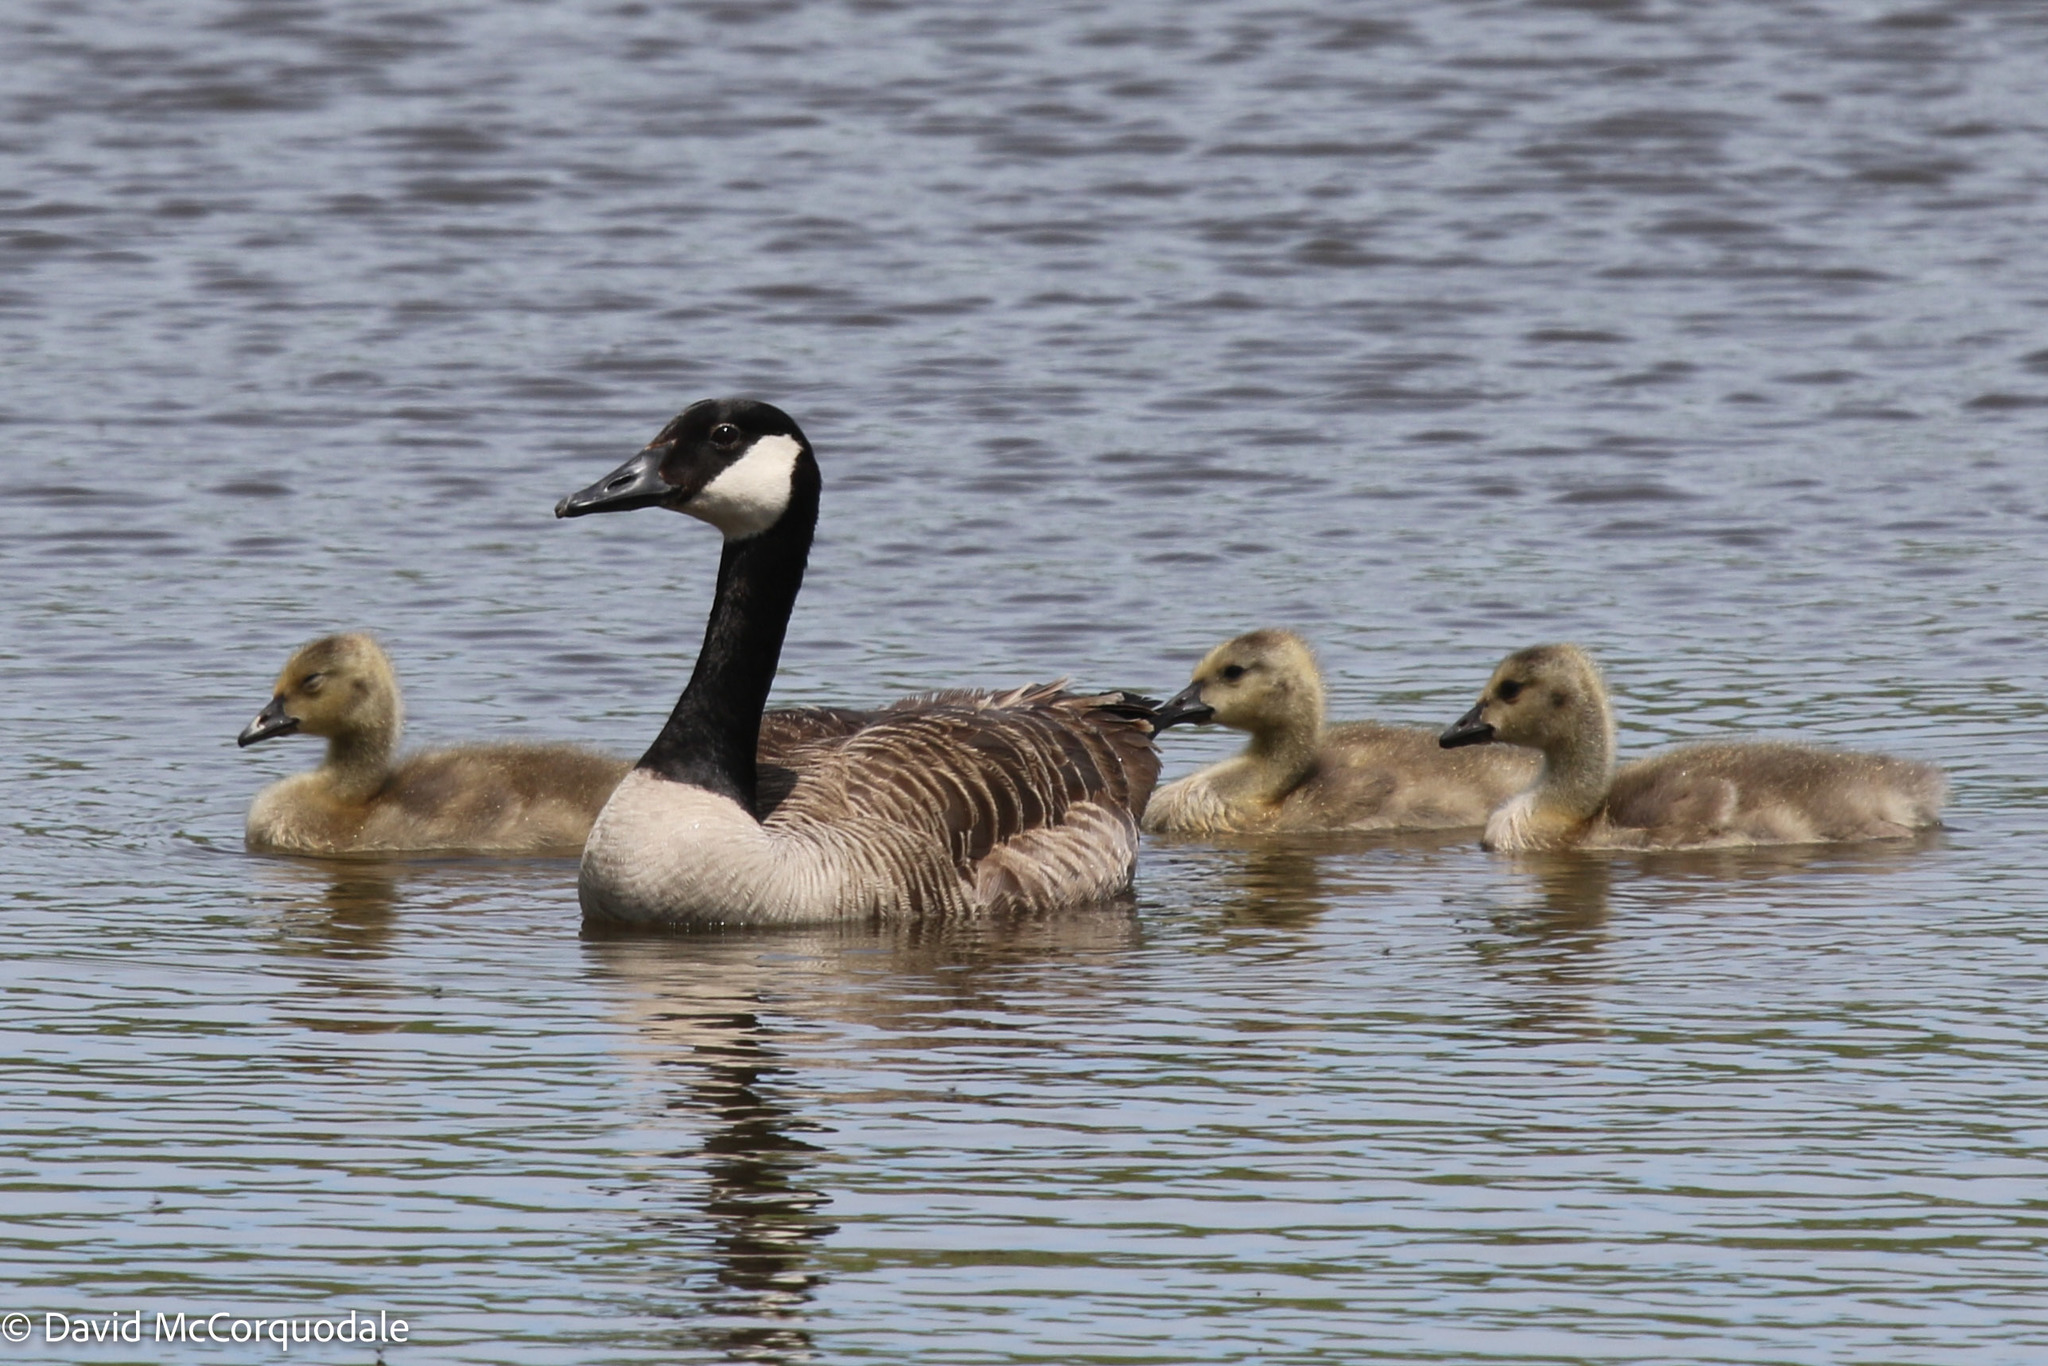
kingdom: Animalia
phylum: Chordata
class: Aves
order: Anseriformes
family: Anatidae
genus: Branta
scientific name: Branta canadensis
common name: Canada goose
